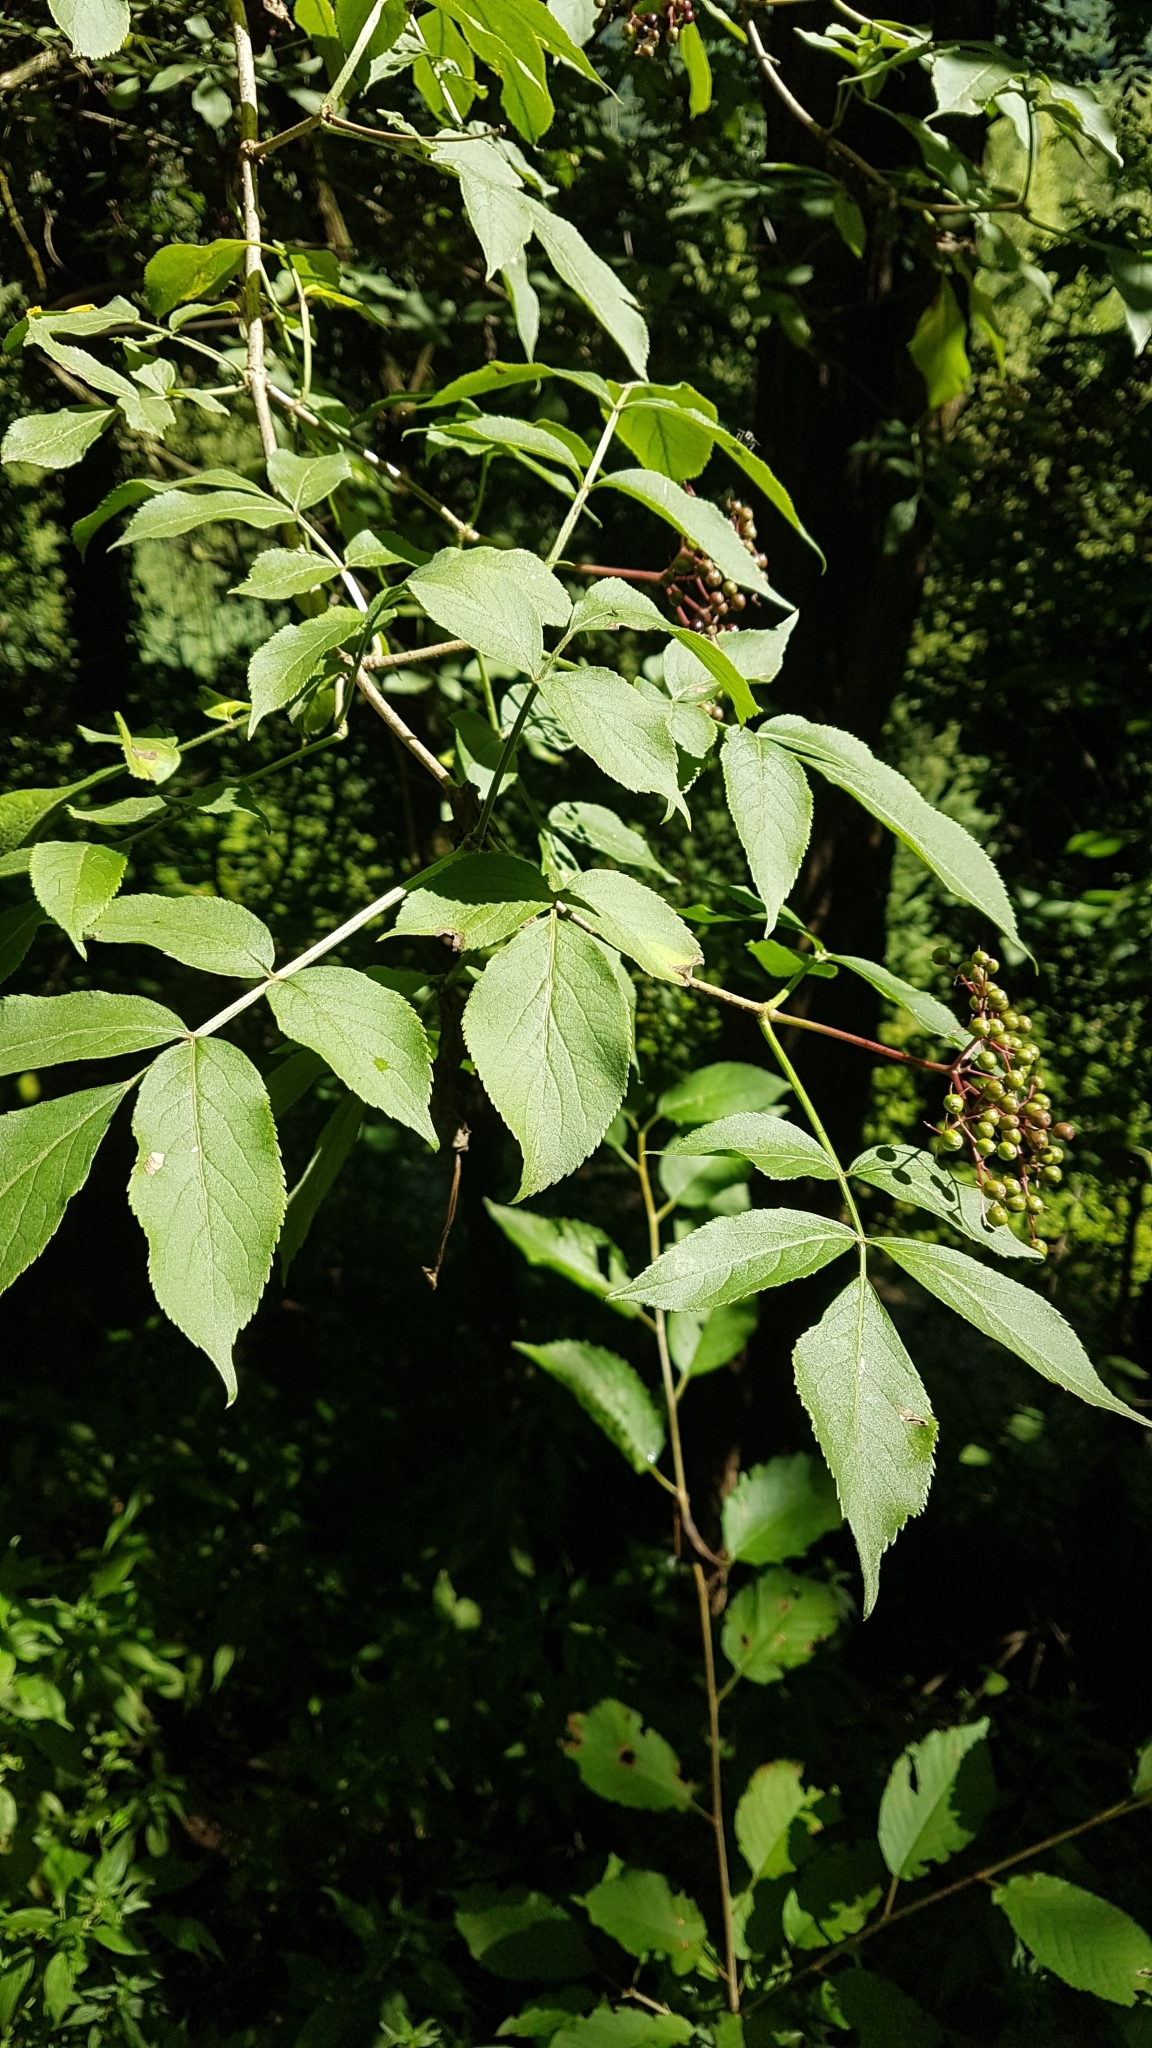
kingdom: Plantae
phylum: Tracheophyta
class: Magnoliopsida
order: Dipsacales
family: Viburnaceae
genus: Sambucus
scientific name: Sambucus nigra
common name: Elder
